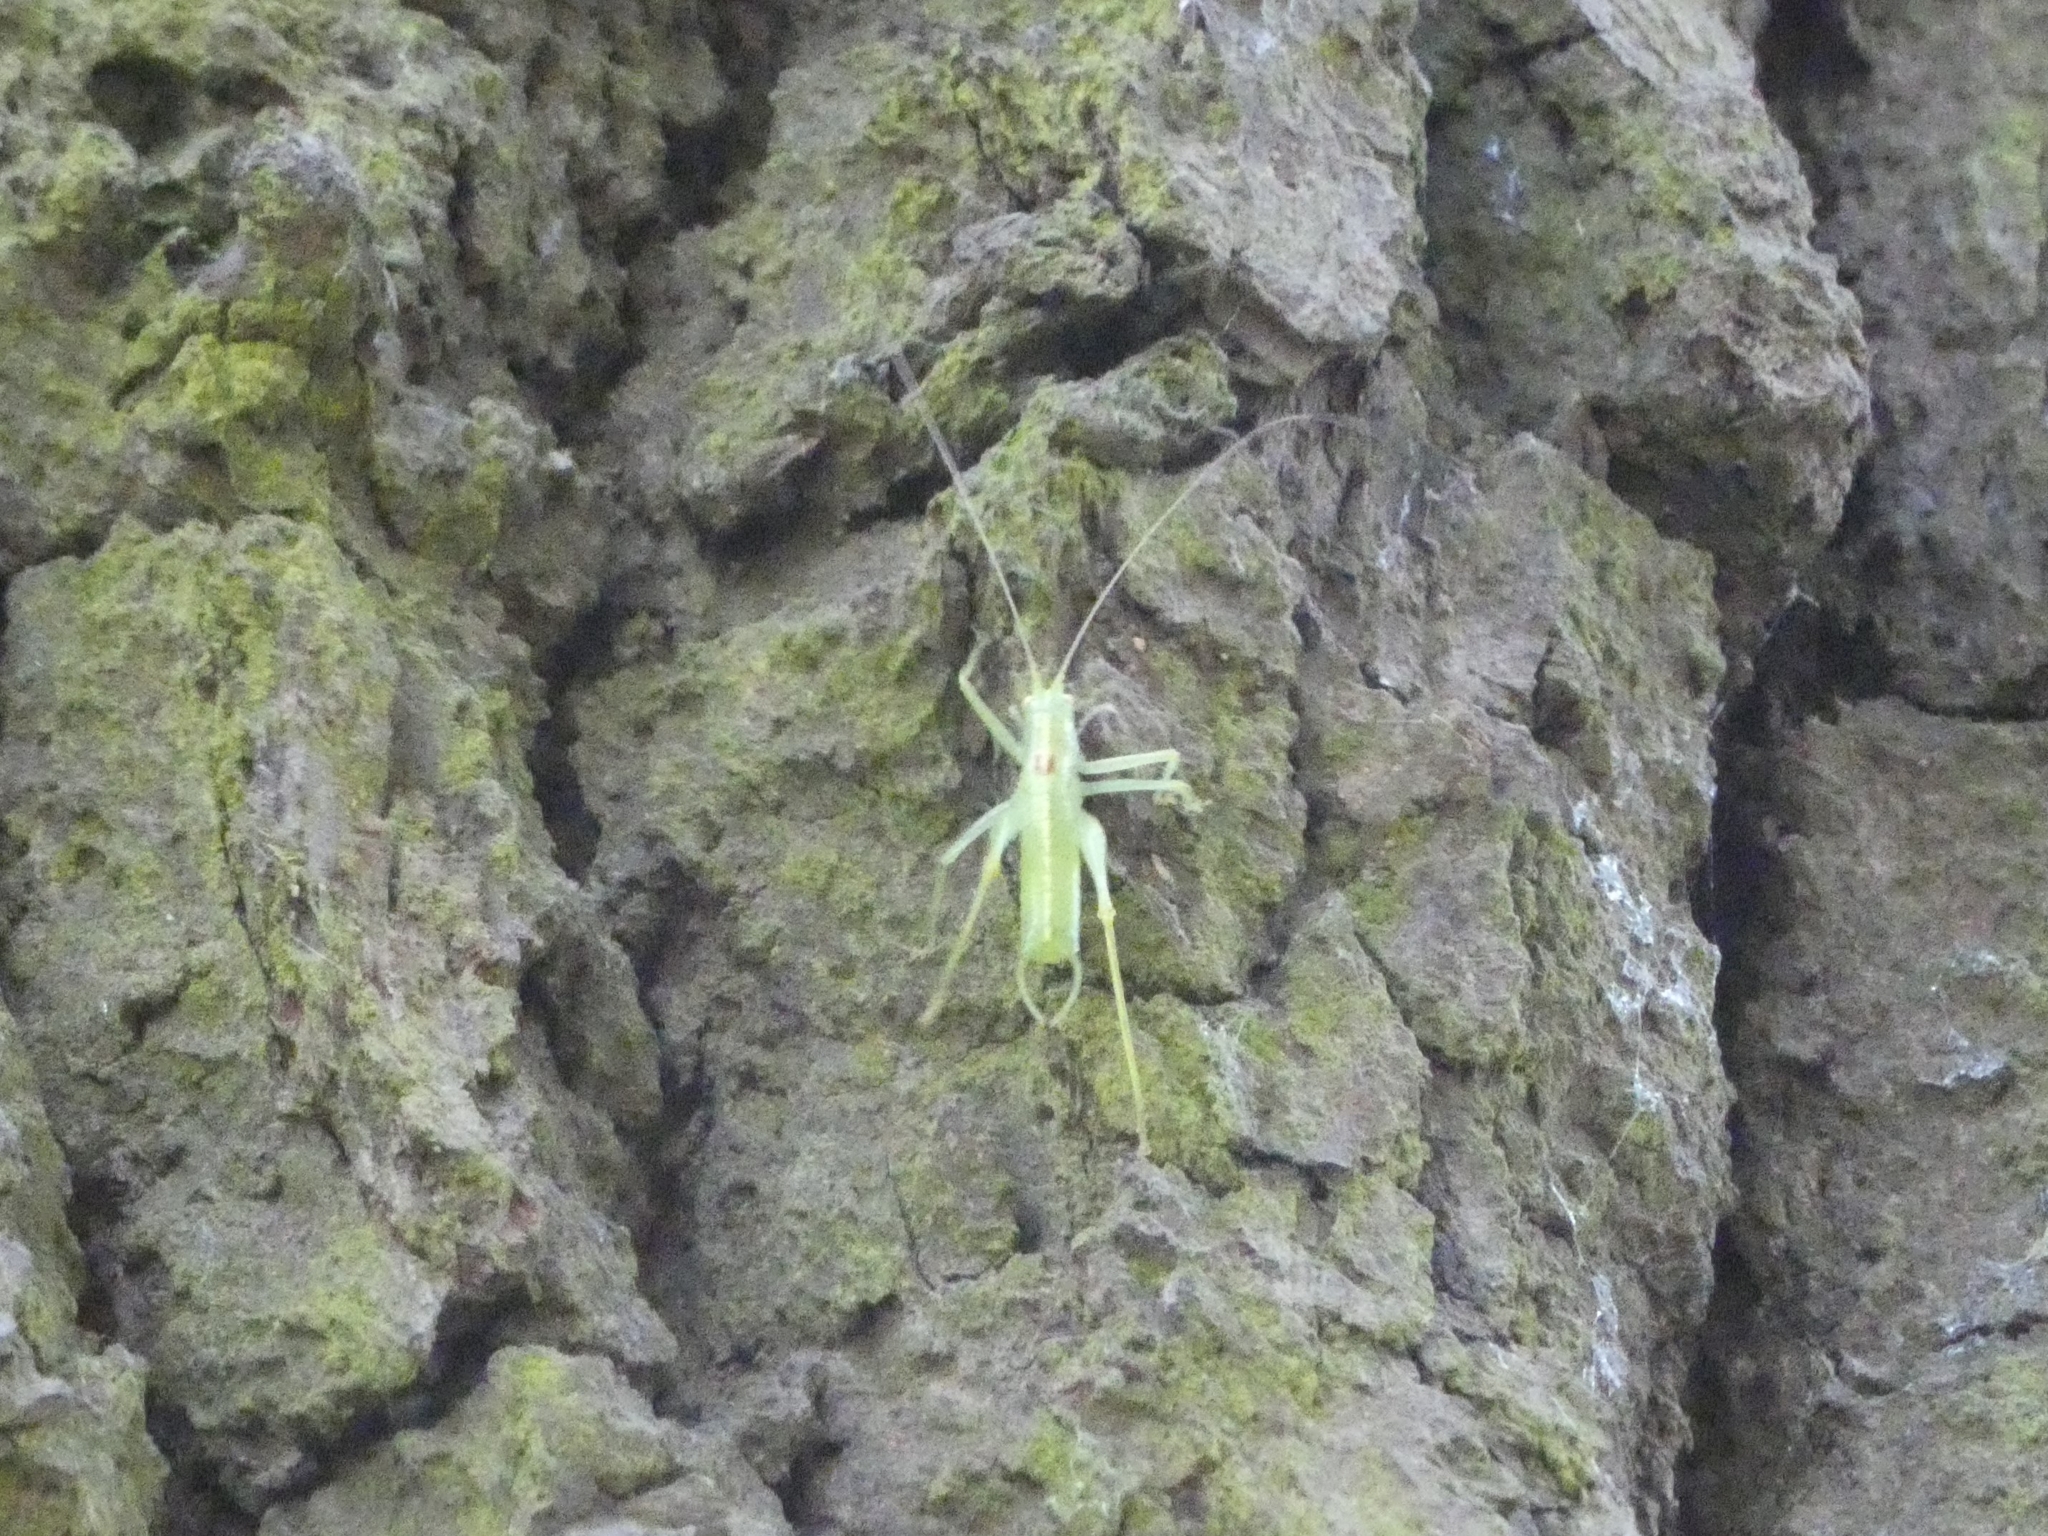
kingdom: Animalia
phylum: Arthropoda
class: Insecta
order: Orthoptera
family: Tettigoniidae
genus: Meconema
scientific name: Meconema meridionale
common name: Southern oak bush-cricket
